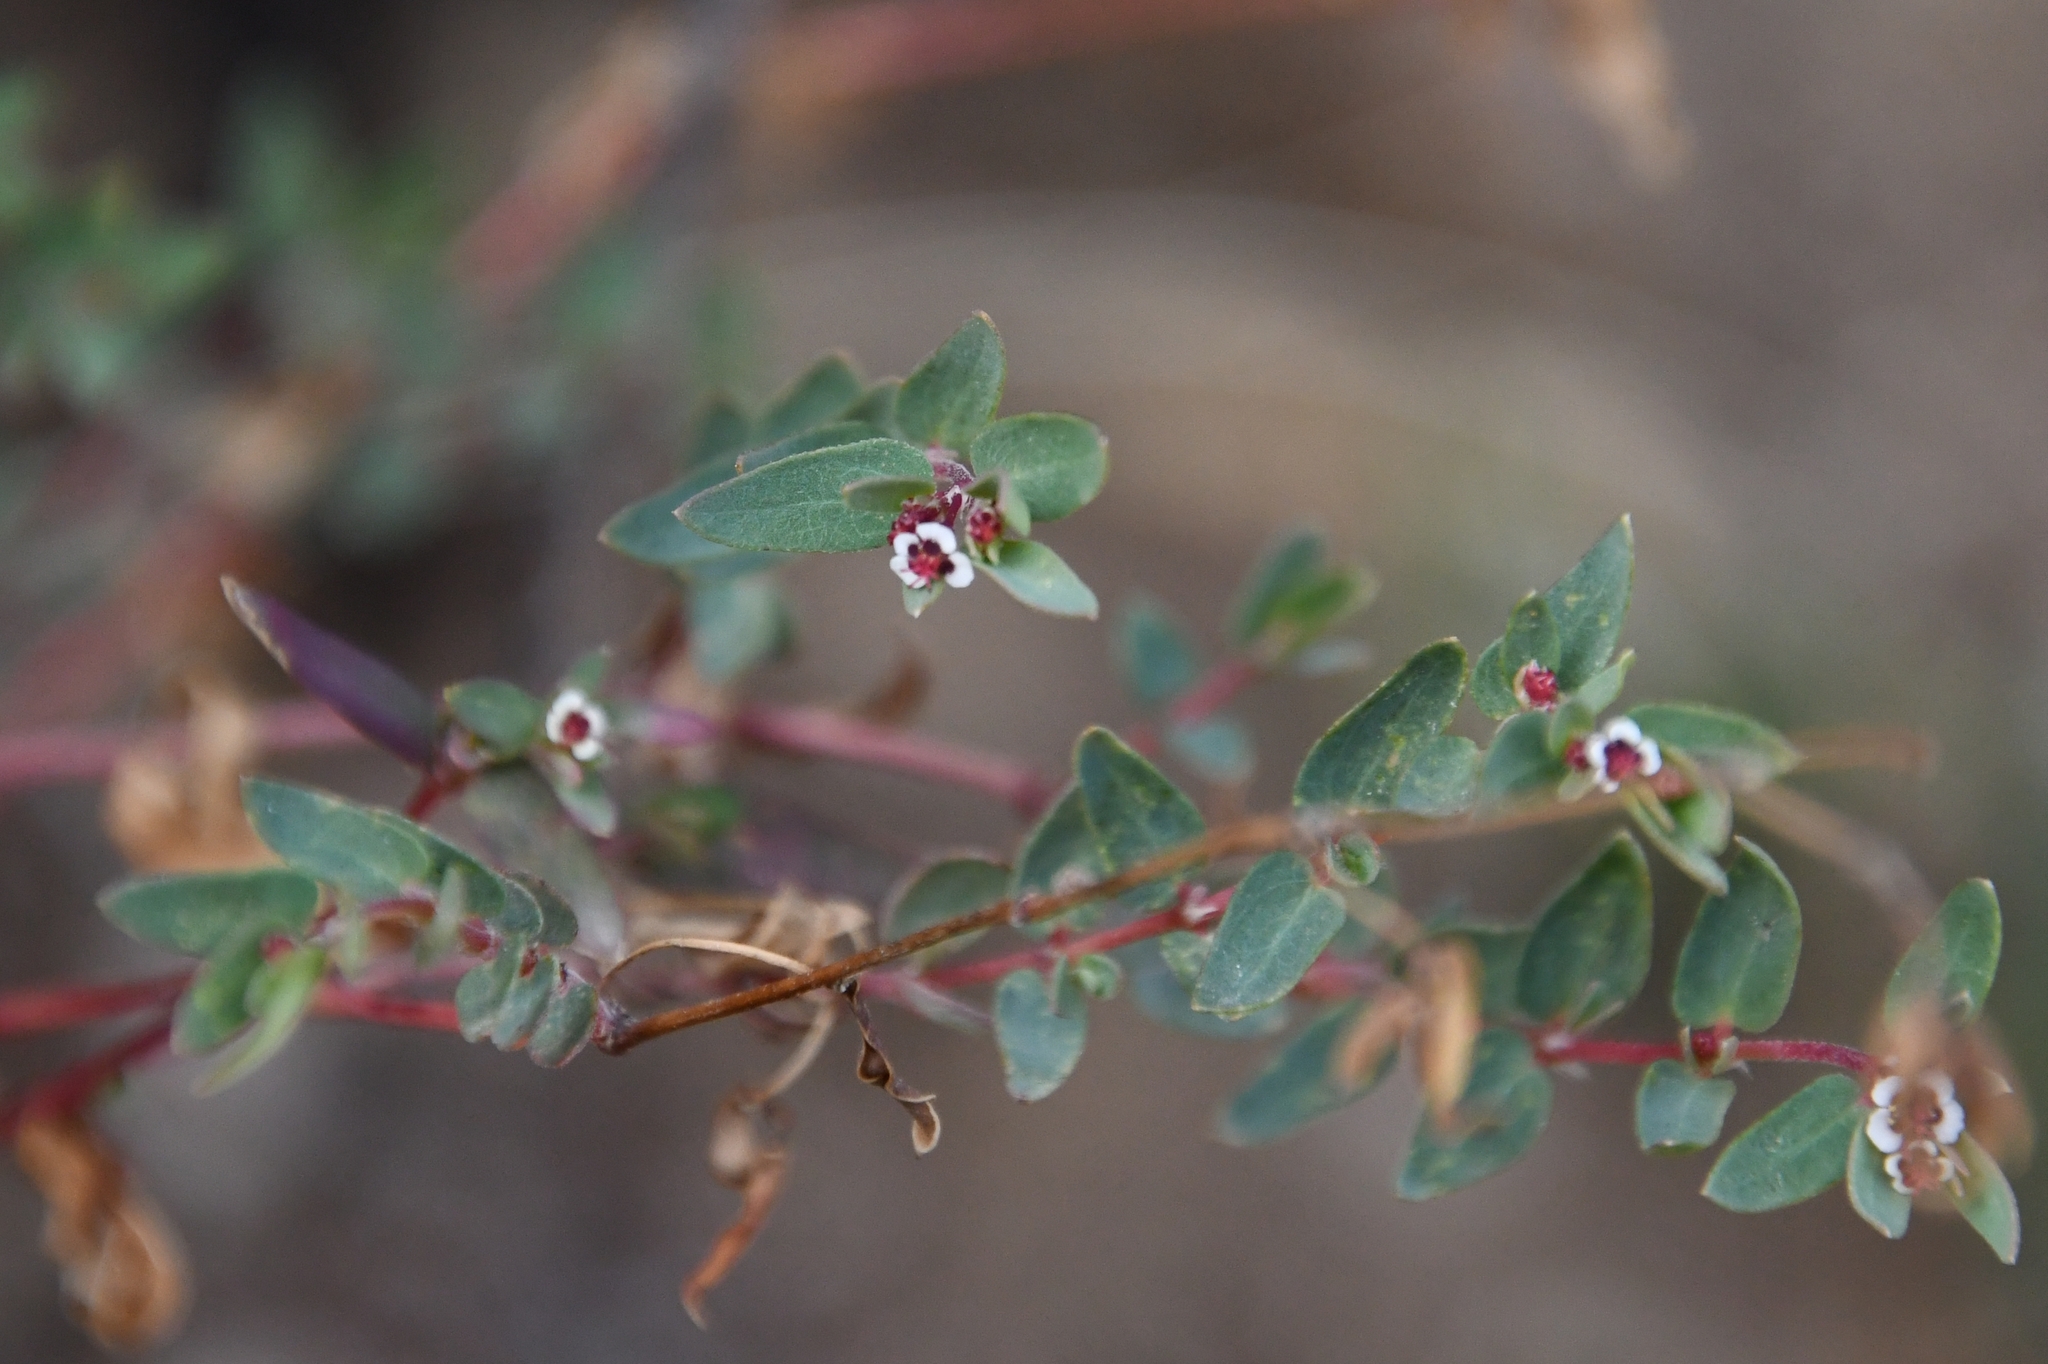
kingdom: Plantae
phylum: Tracheophyta
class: Magnoliopsida
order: Malpighiales
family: Euphorbiaceae
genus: Euphorbia
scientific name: Euphorbia capitellata
